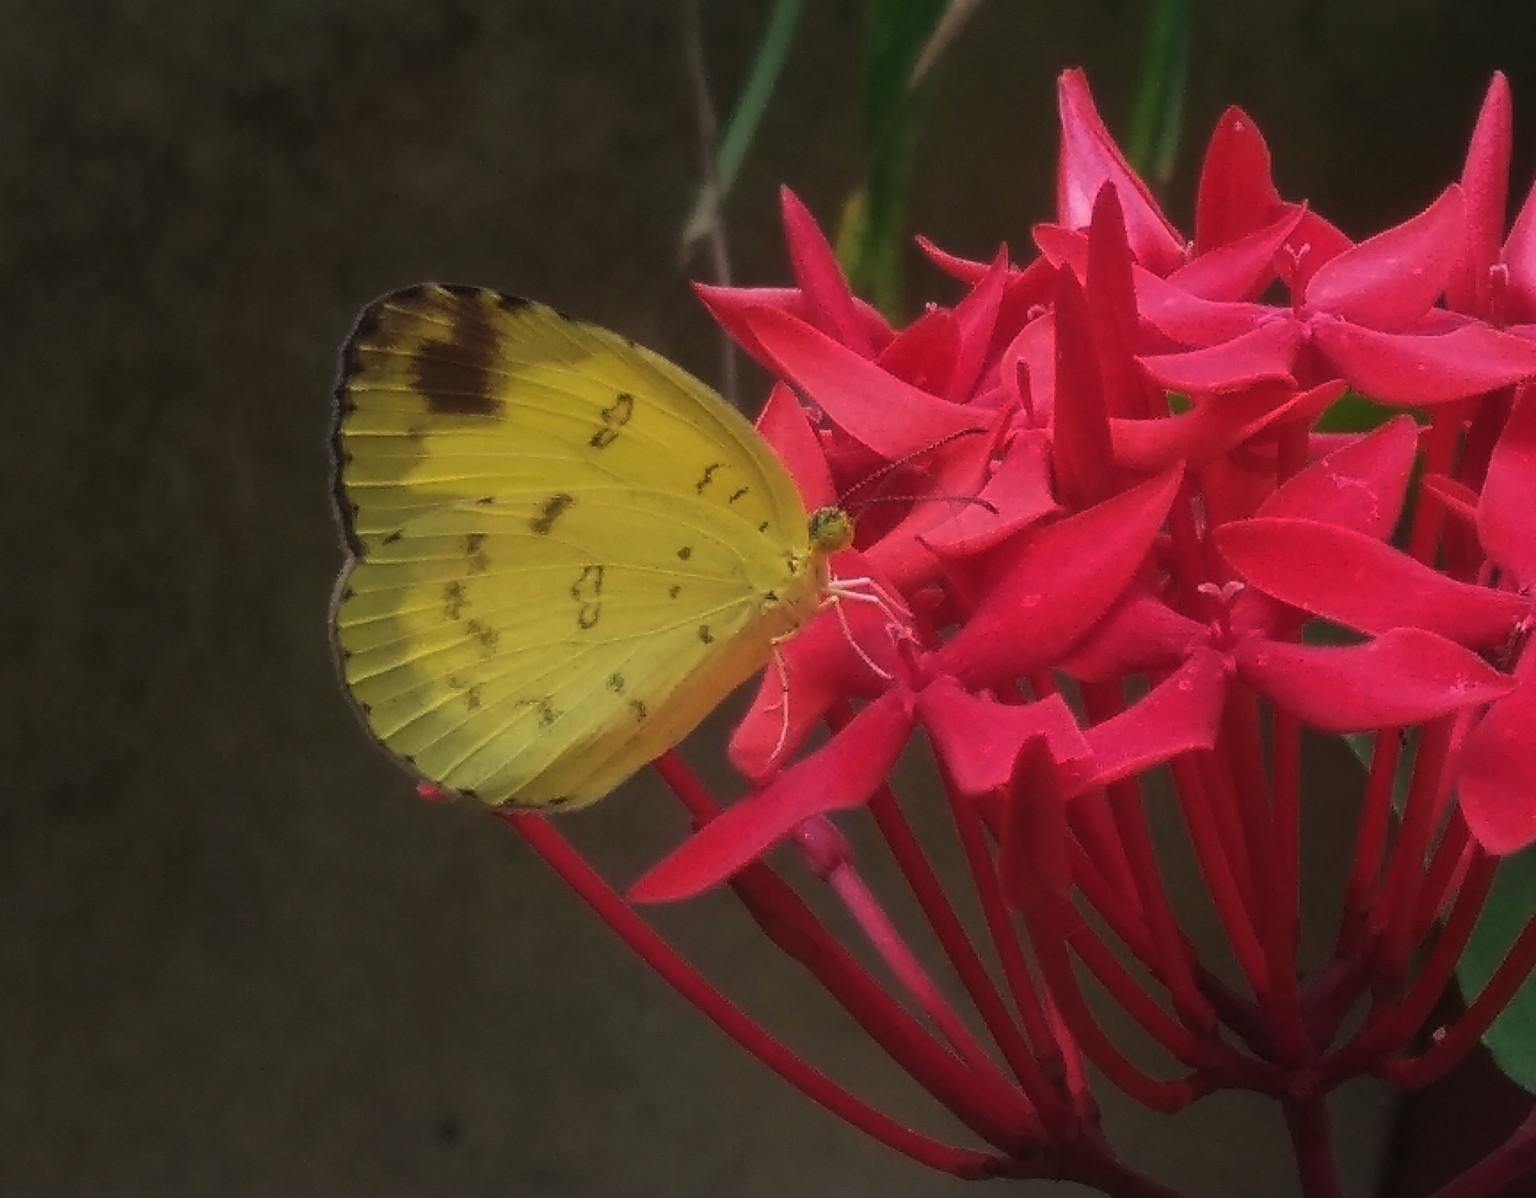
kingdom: Animalia
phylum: Arthropoda
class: Insecta
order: Lepidoptera
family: Pieridae
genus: Eurema
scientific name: Eurema blanda
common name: Three-spot grass yellow
